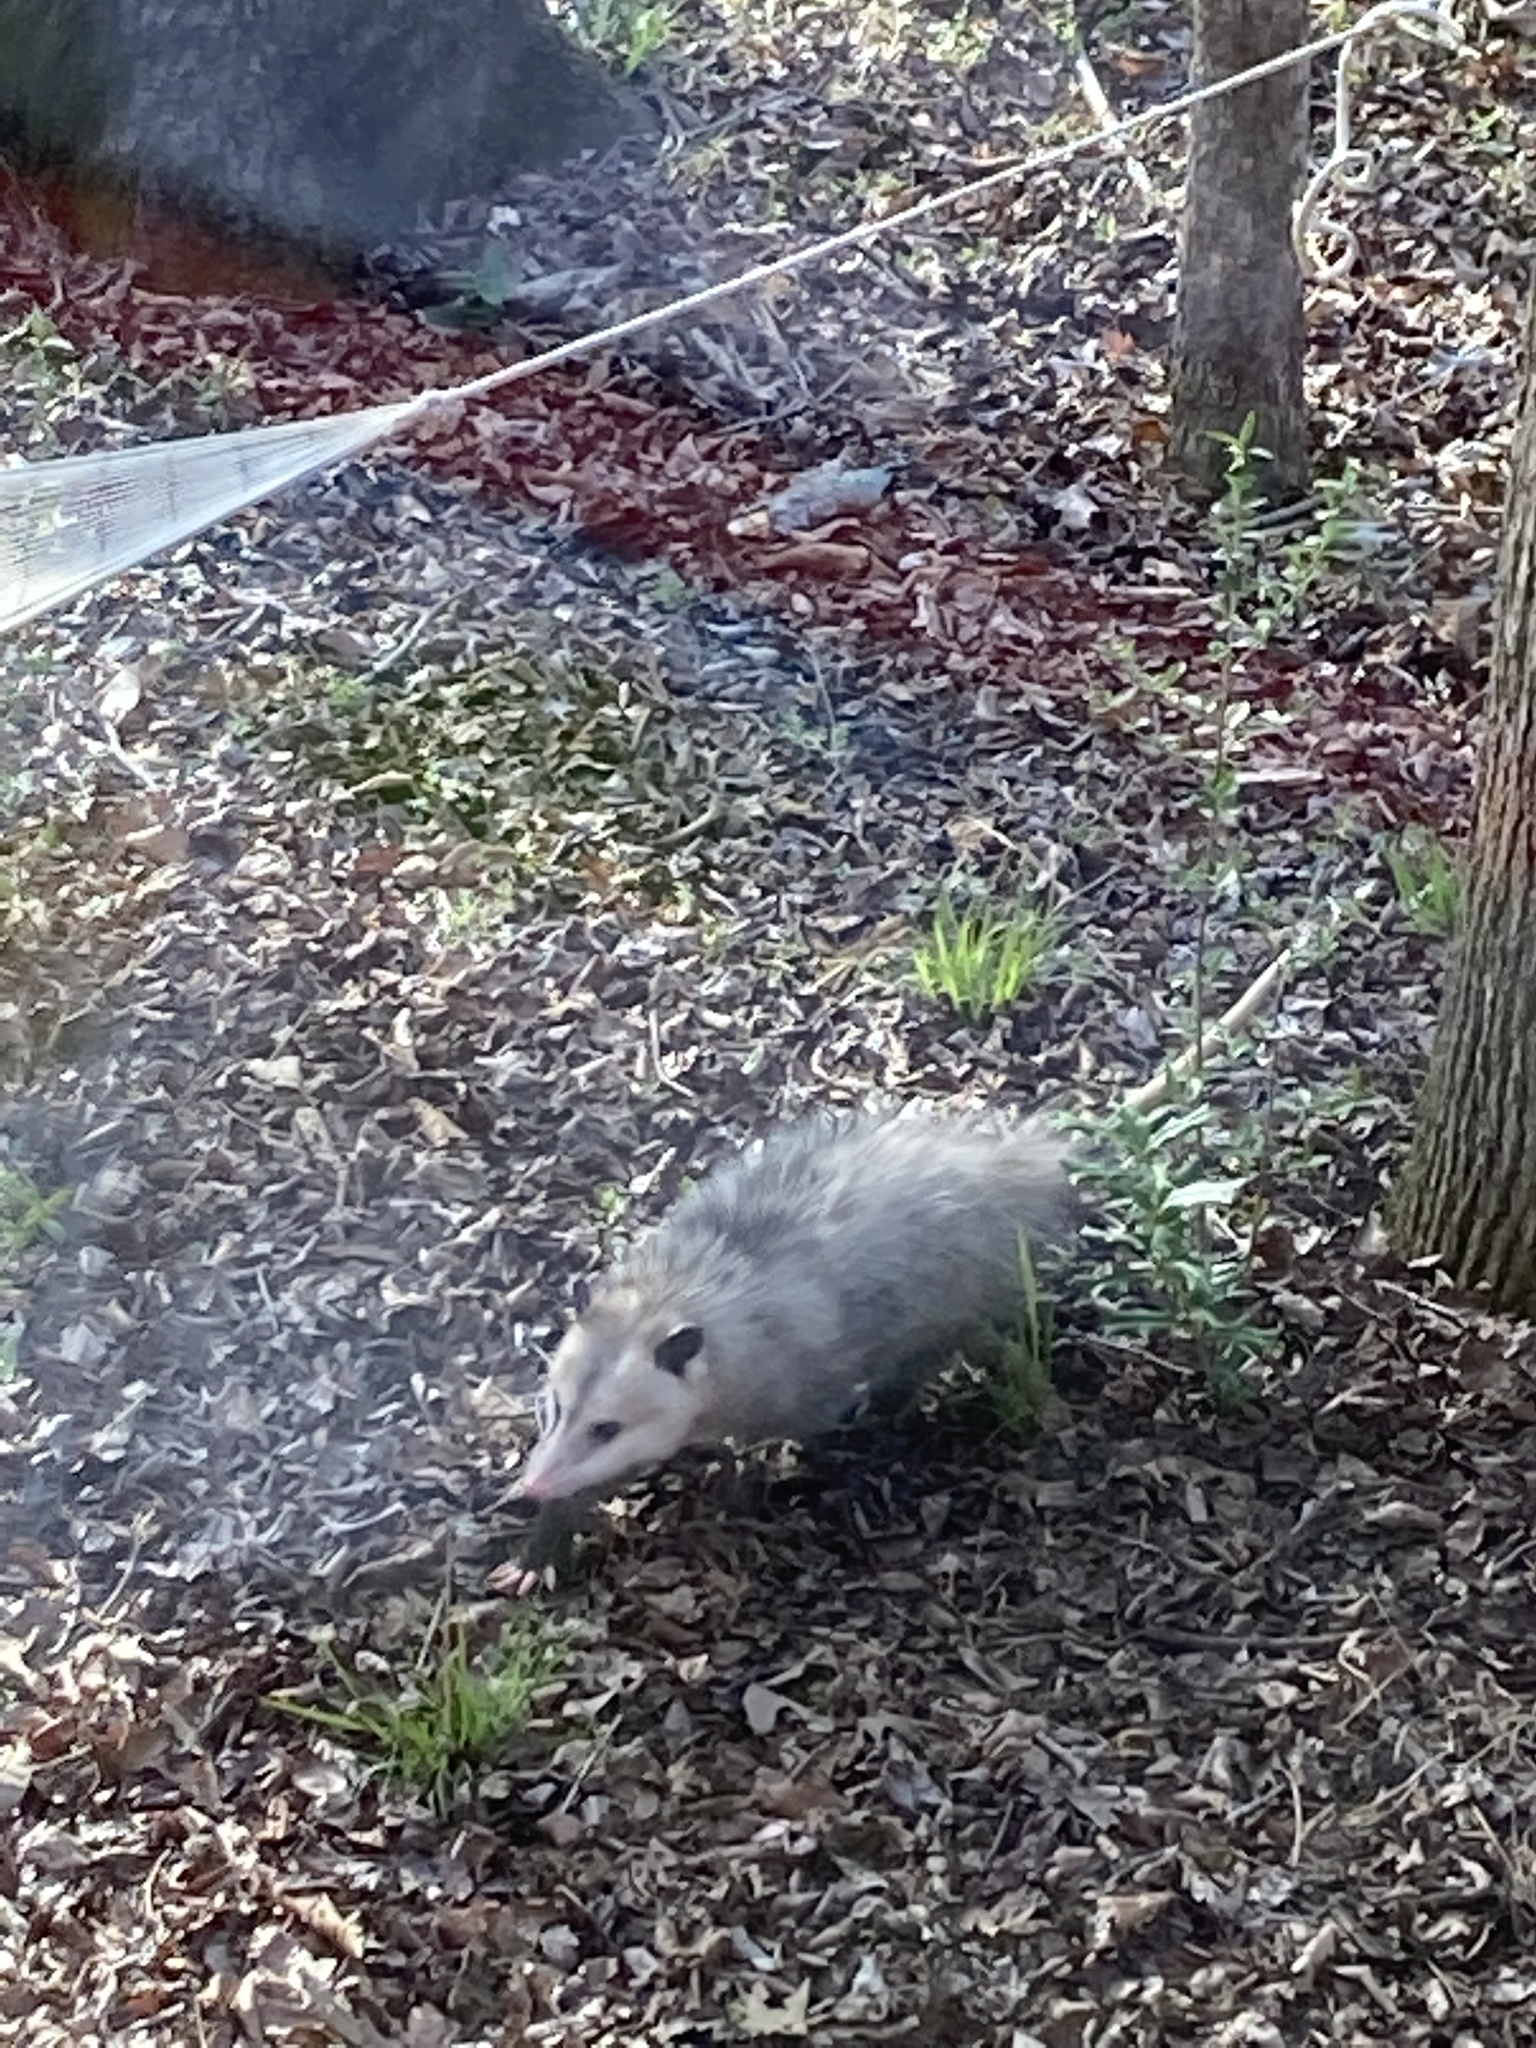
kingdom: Animalia
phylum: Chordata
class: Mammalia
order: Didelphimorphia
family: Didelphidae
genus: Didelphis
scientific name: Didelphis virginiana
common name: Virginia opossum
